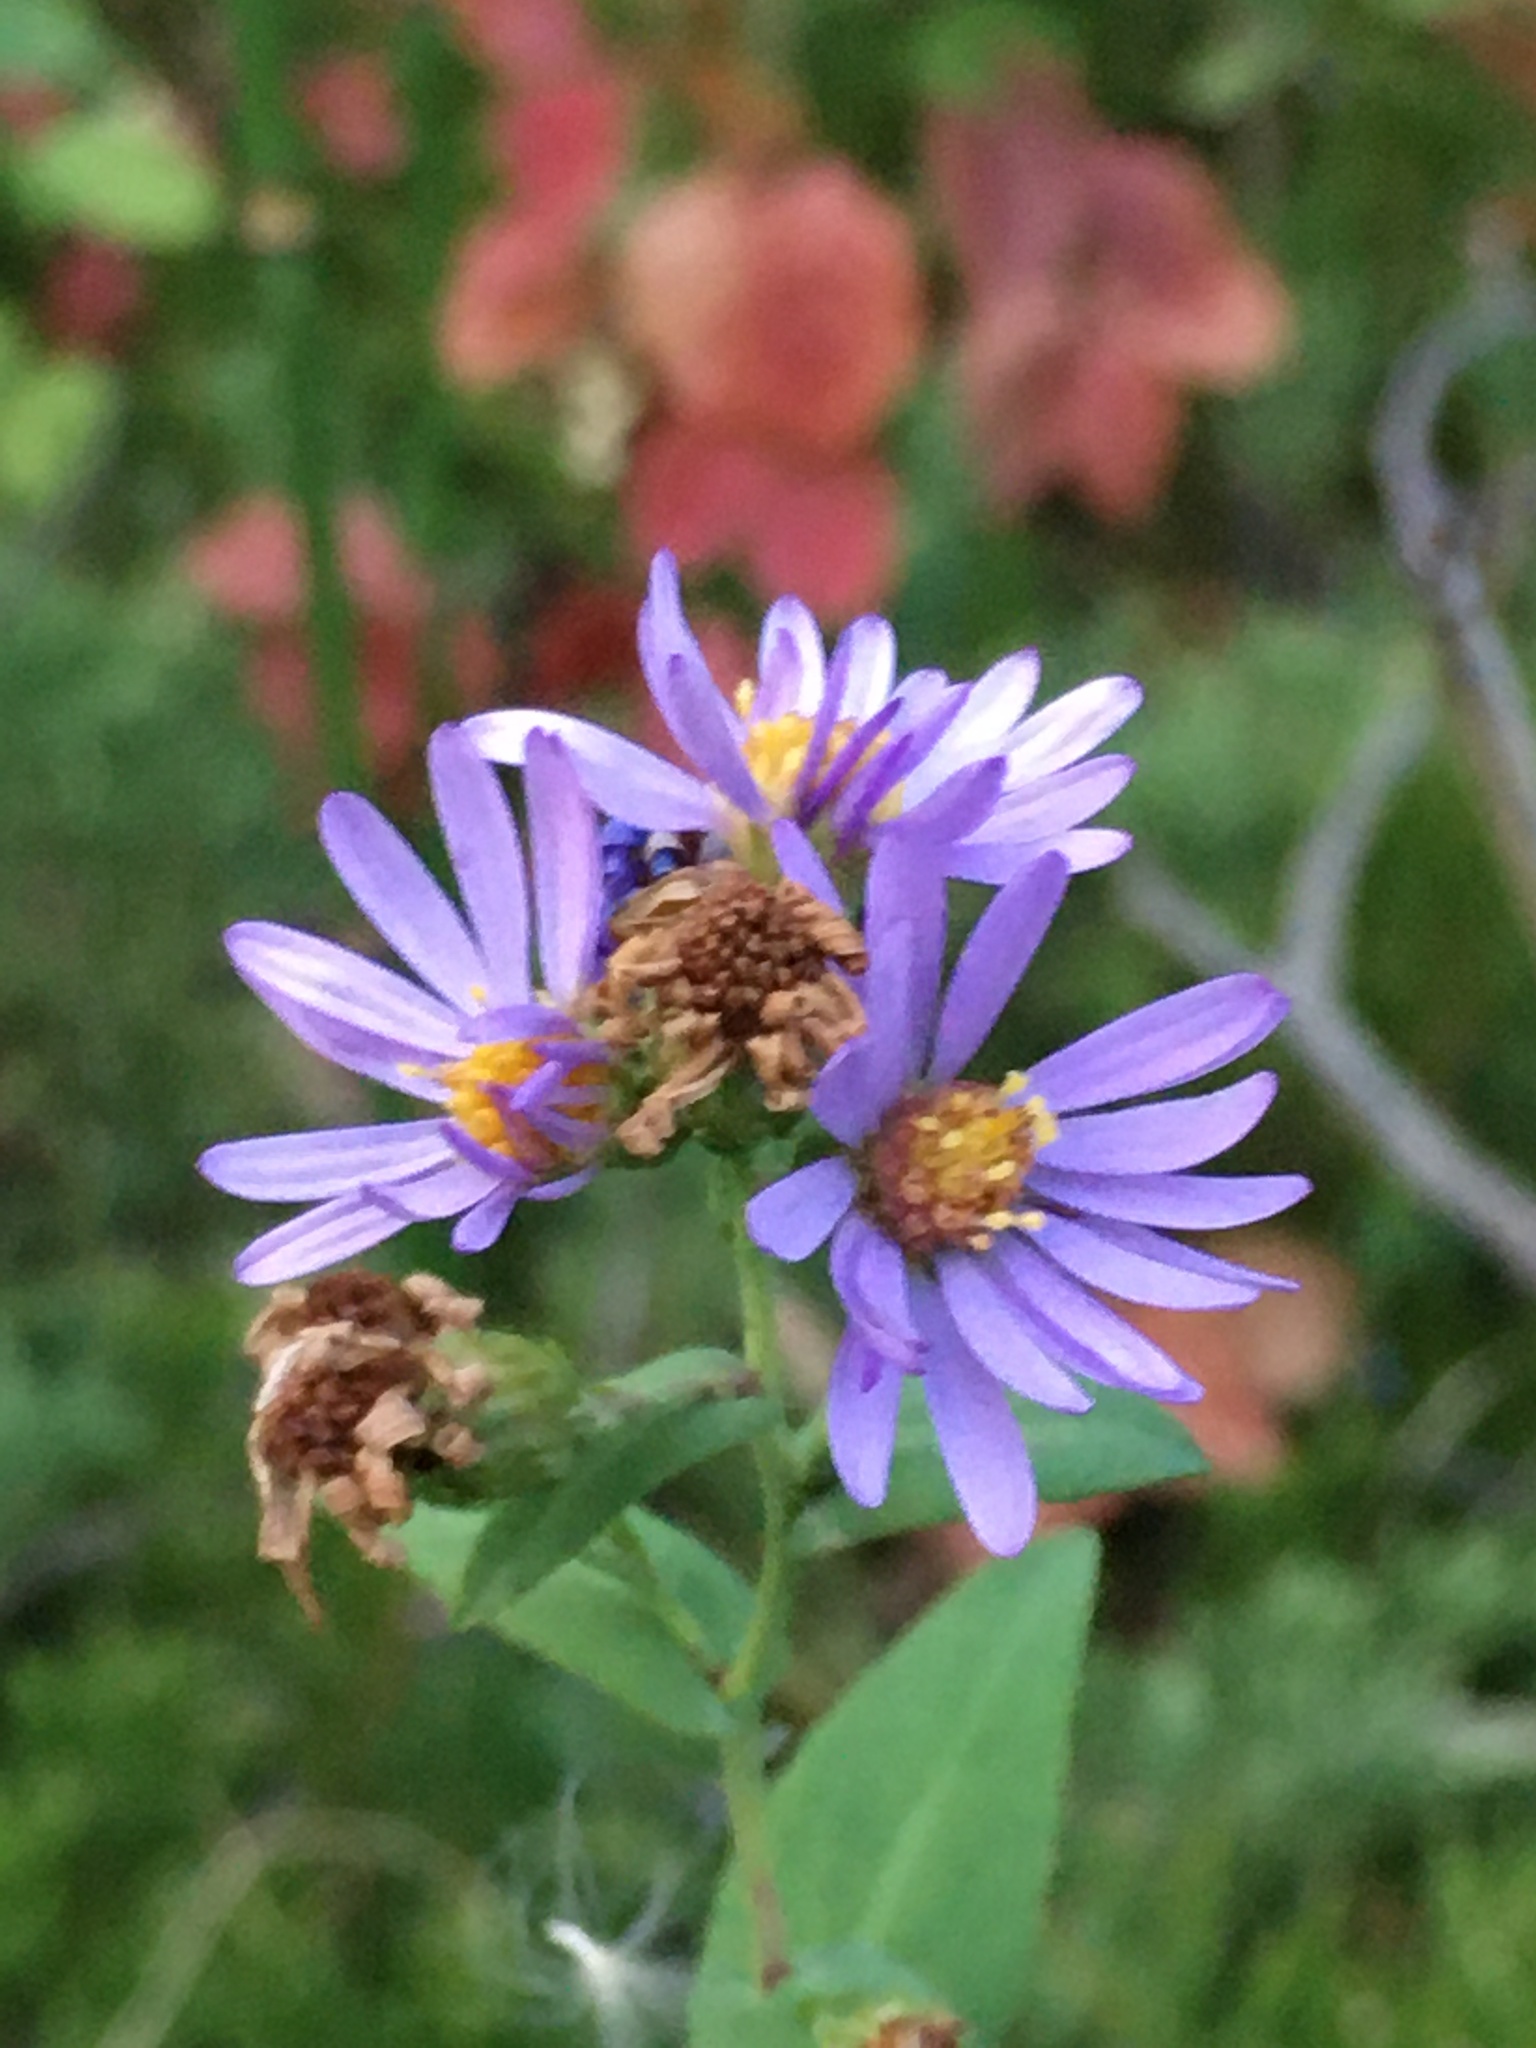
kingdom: Plantae
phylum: Tracheophyta
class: Magnoliopsida
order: Asterales
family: Asteraceae
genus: Symphyotrichum
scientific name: Symphyotrichum laeve
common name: Glaucous aster
